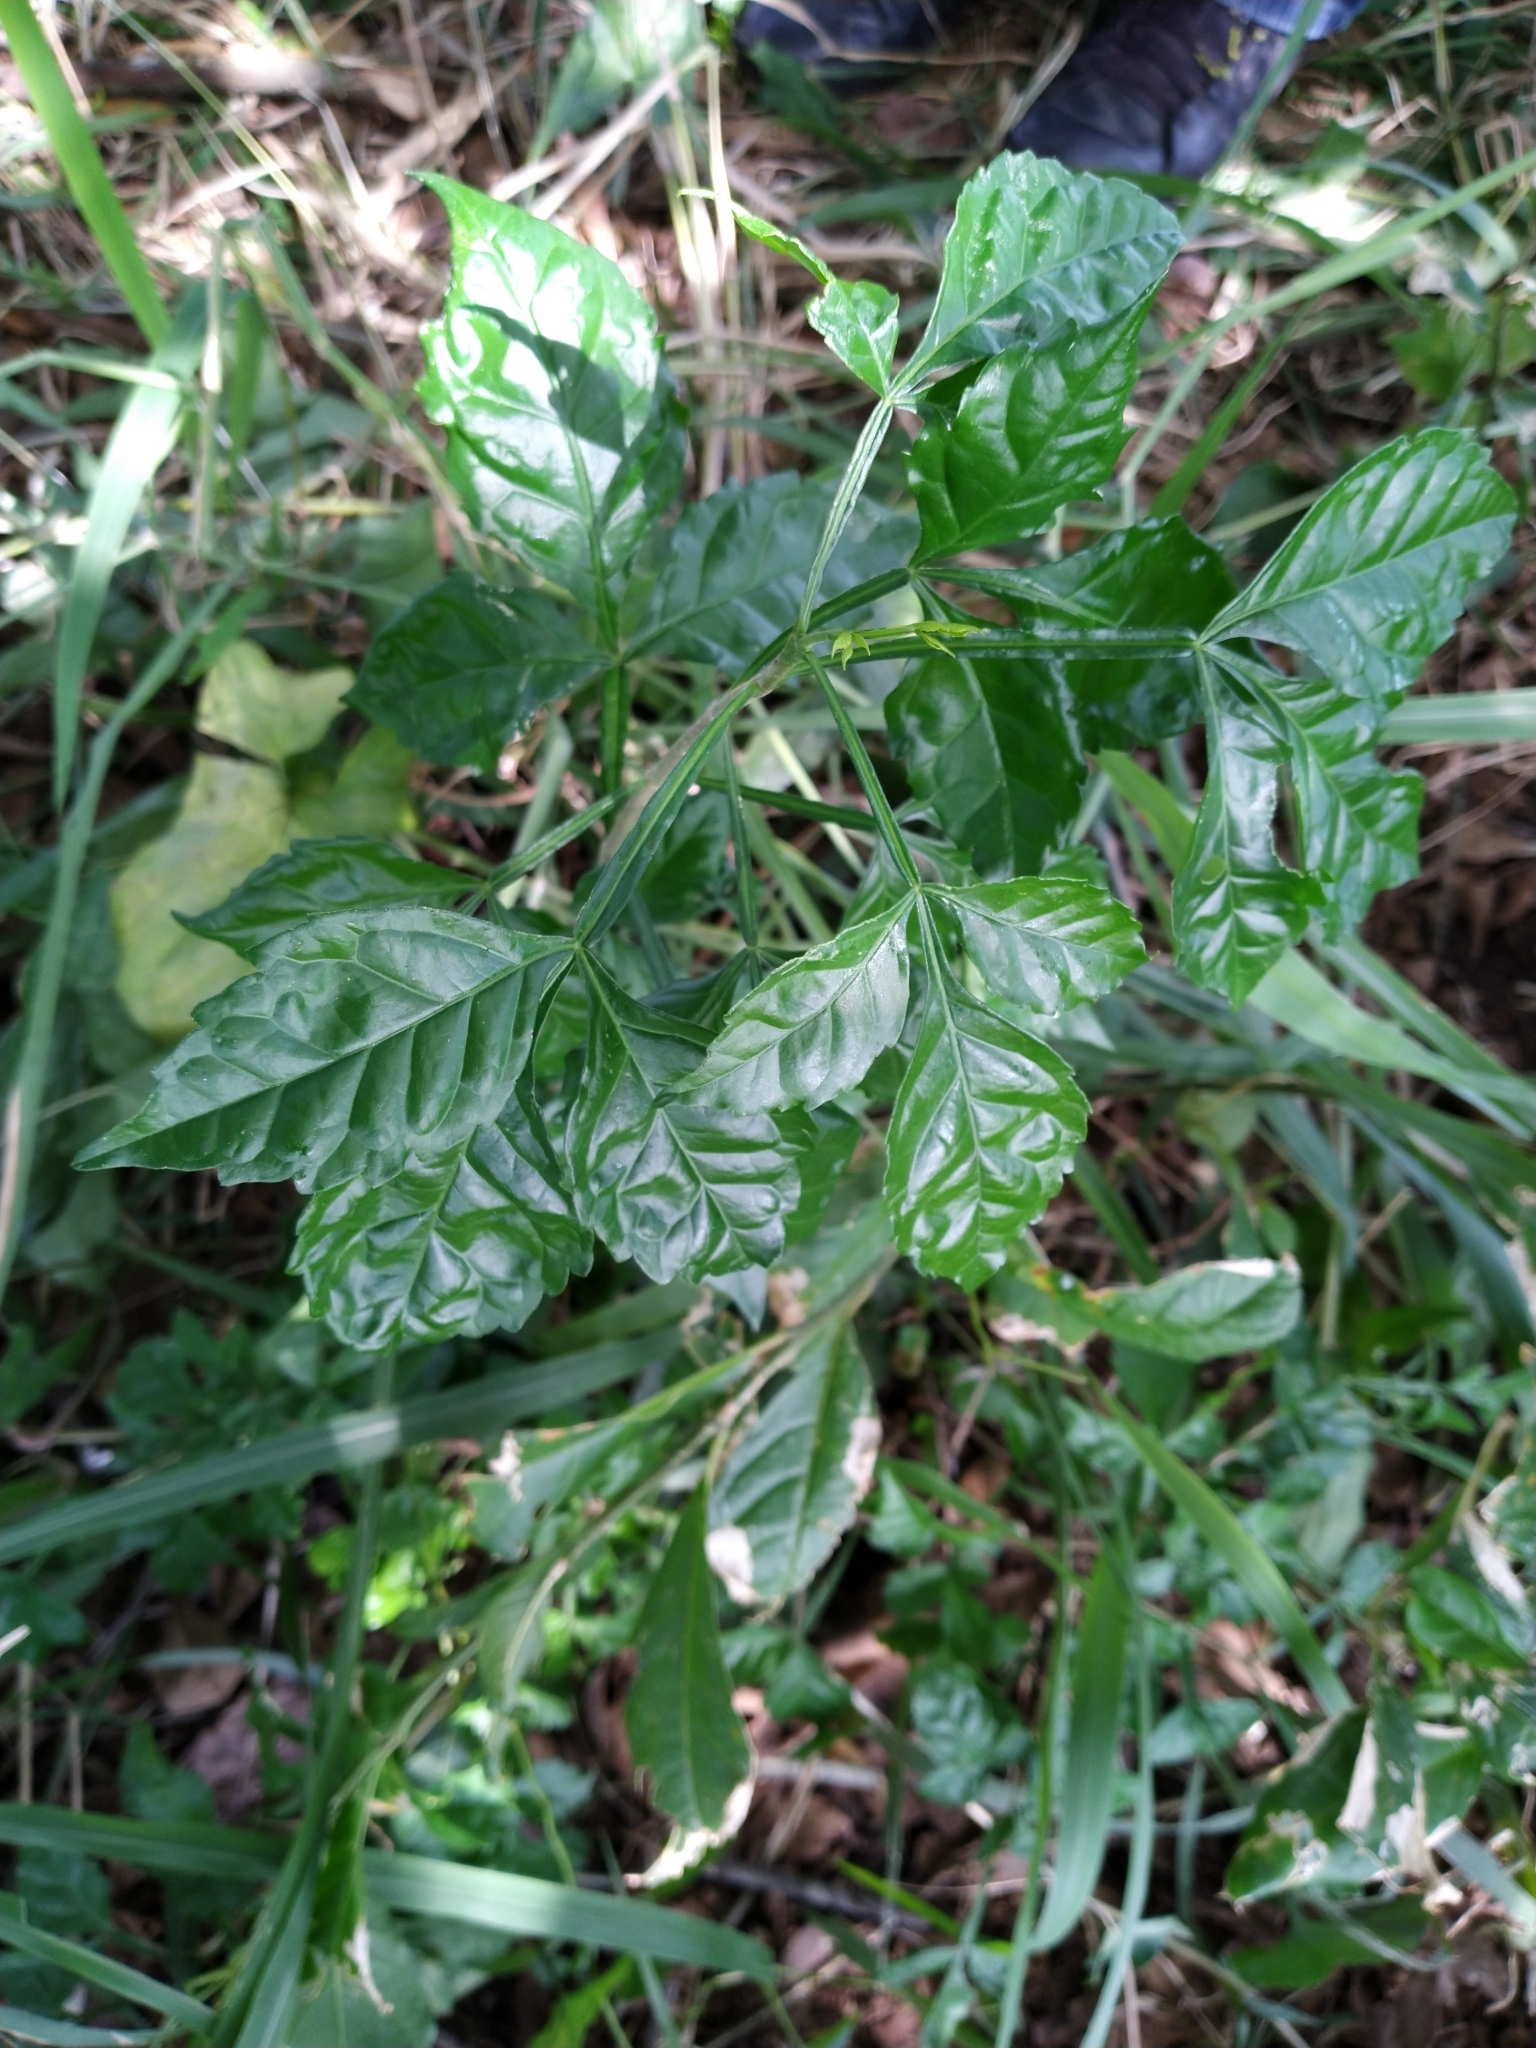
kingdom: Plantae
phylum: Tracheophyta
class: Magnoliopsida
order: Lamiales
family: Bignoniaceae
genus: Parmentiera
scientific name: Parmentiera aculeata
